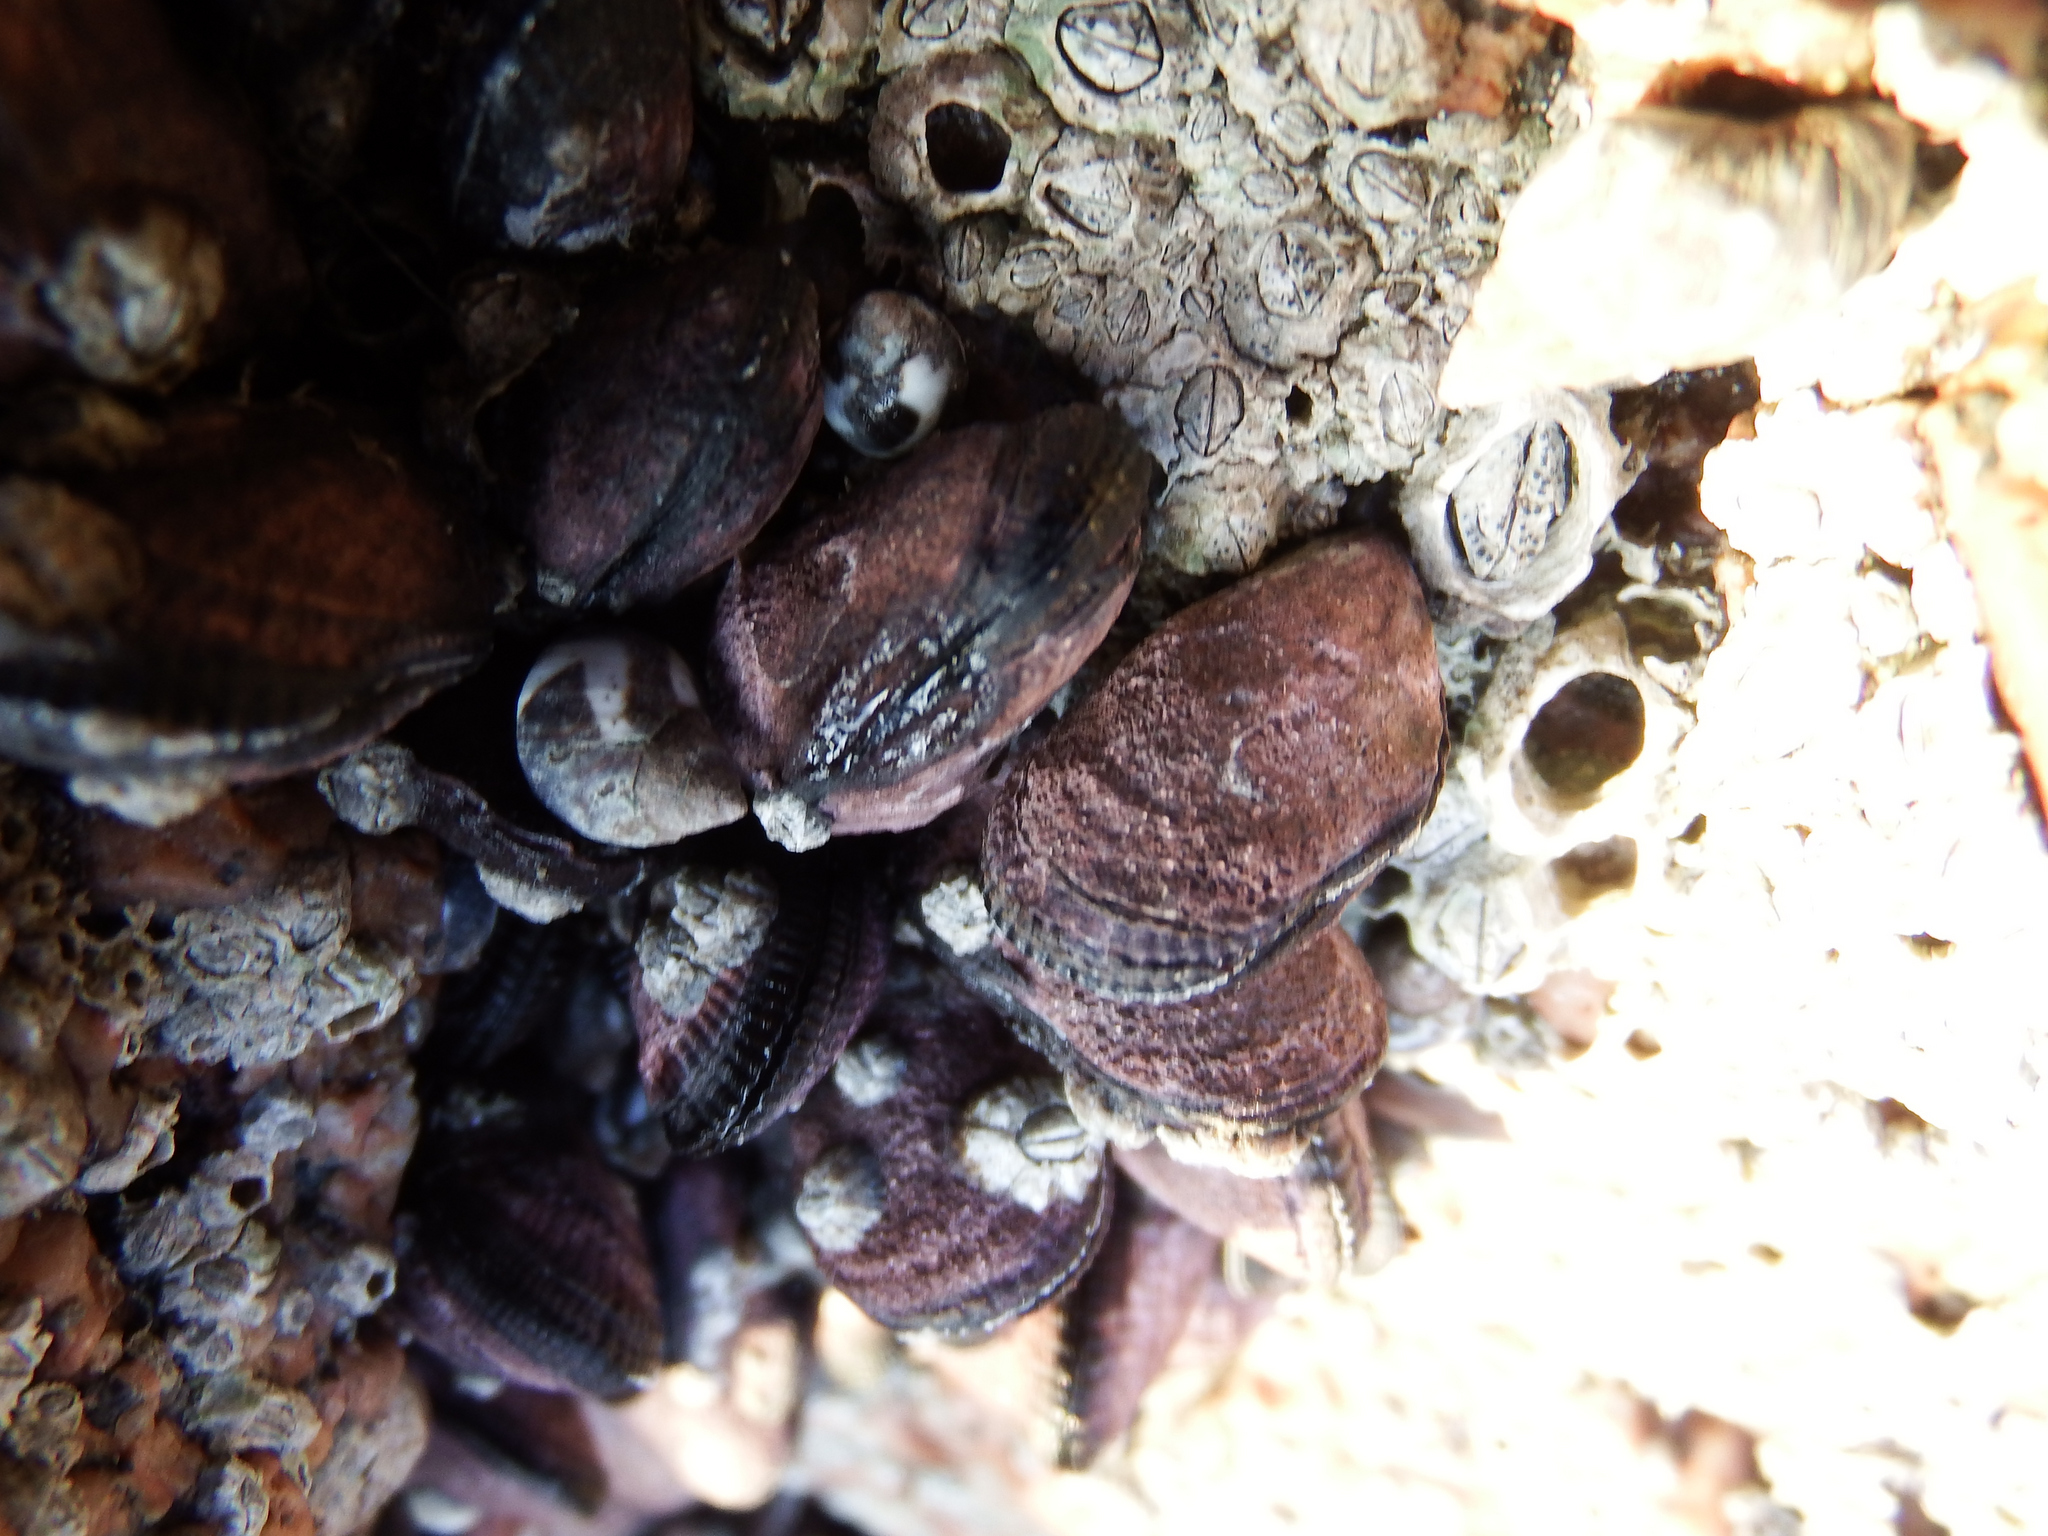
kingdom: Animalia
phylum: Mollusca
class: Bivalvia
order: Mytilida
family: Mytilidae
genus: Perumytilus
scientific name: Perumytilus purpuratus
